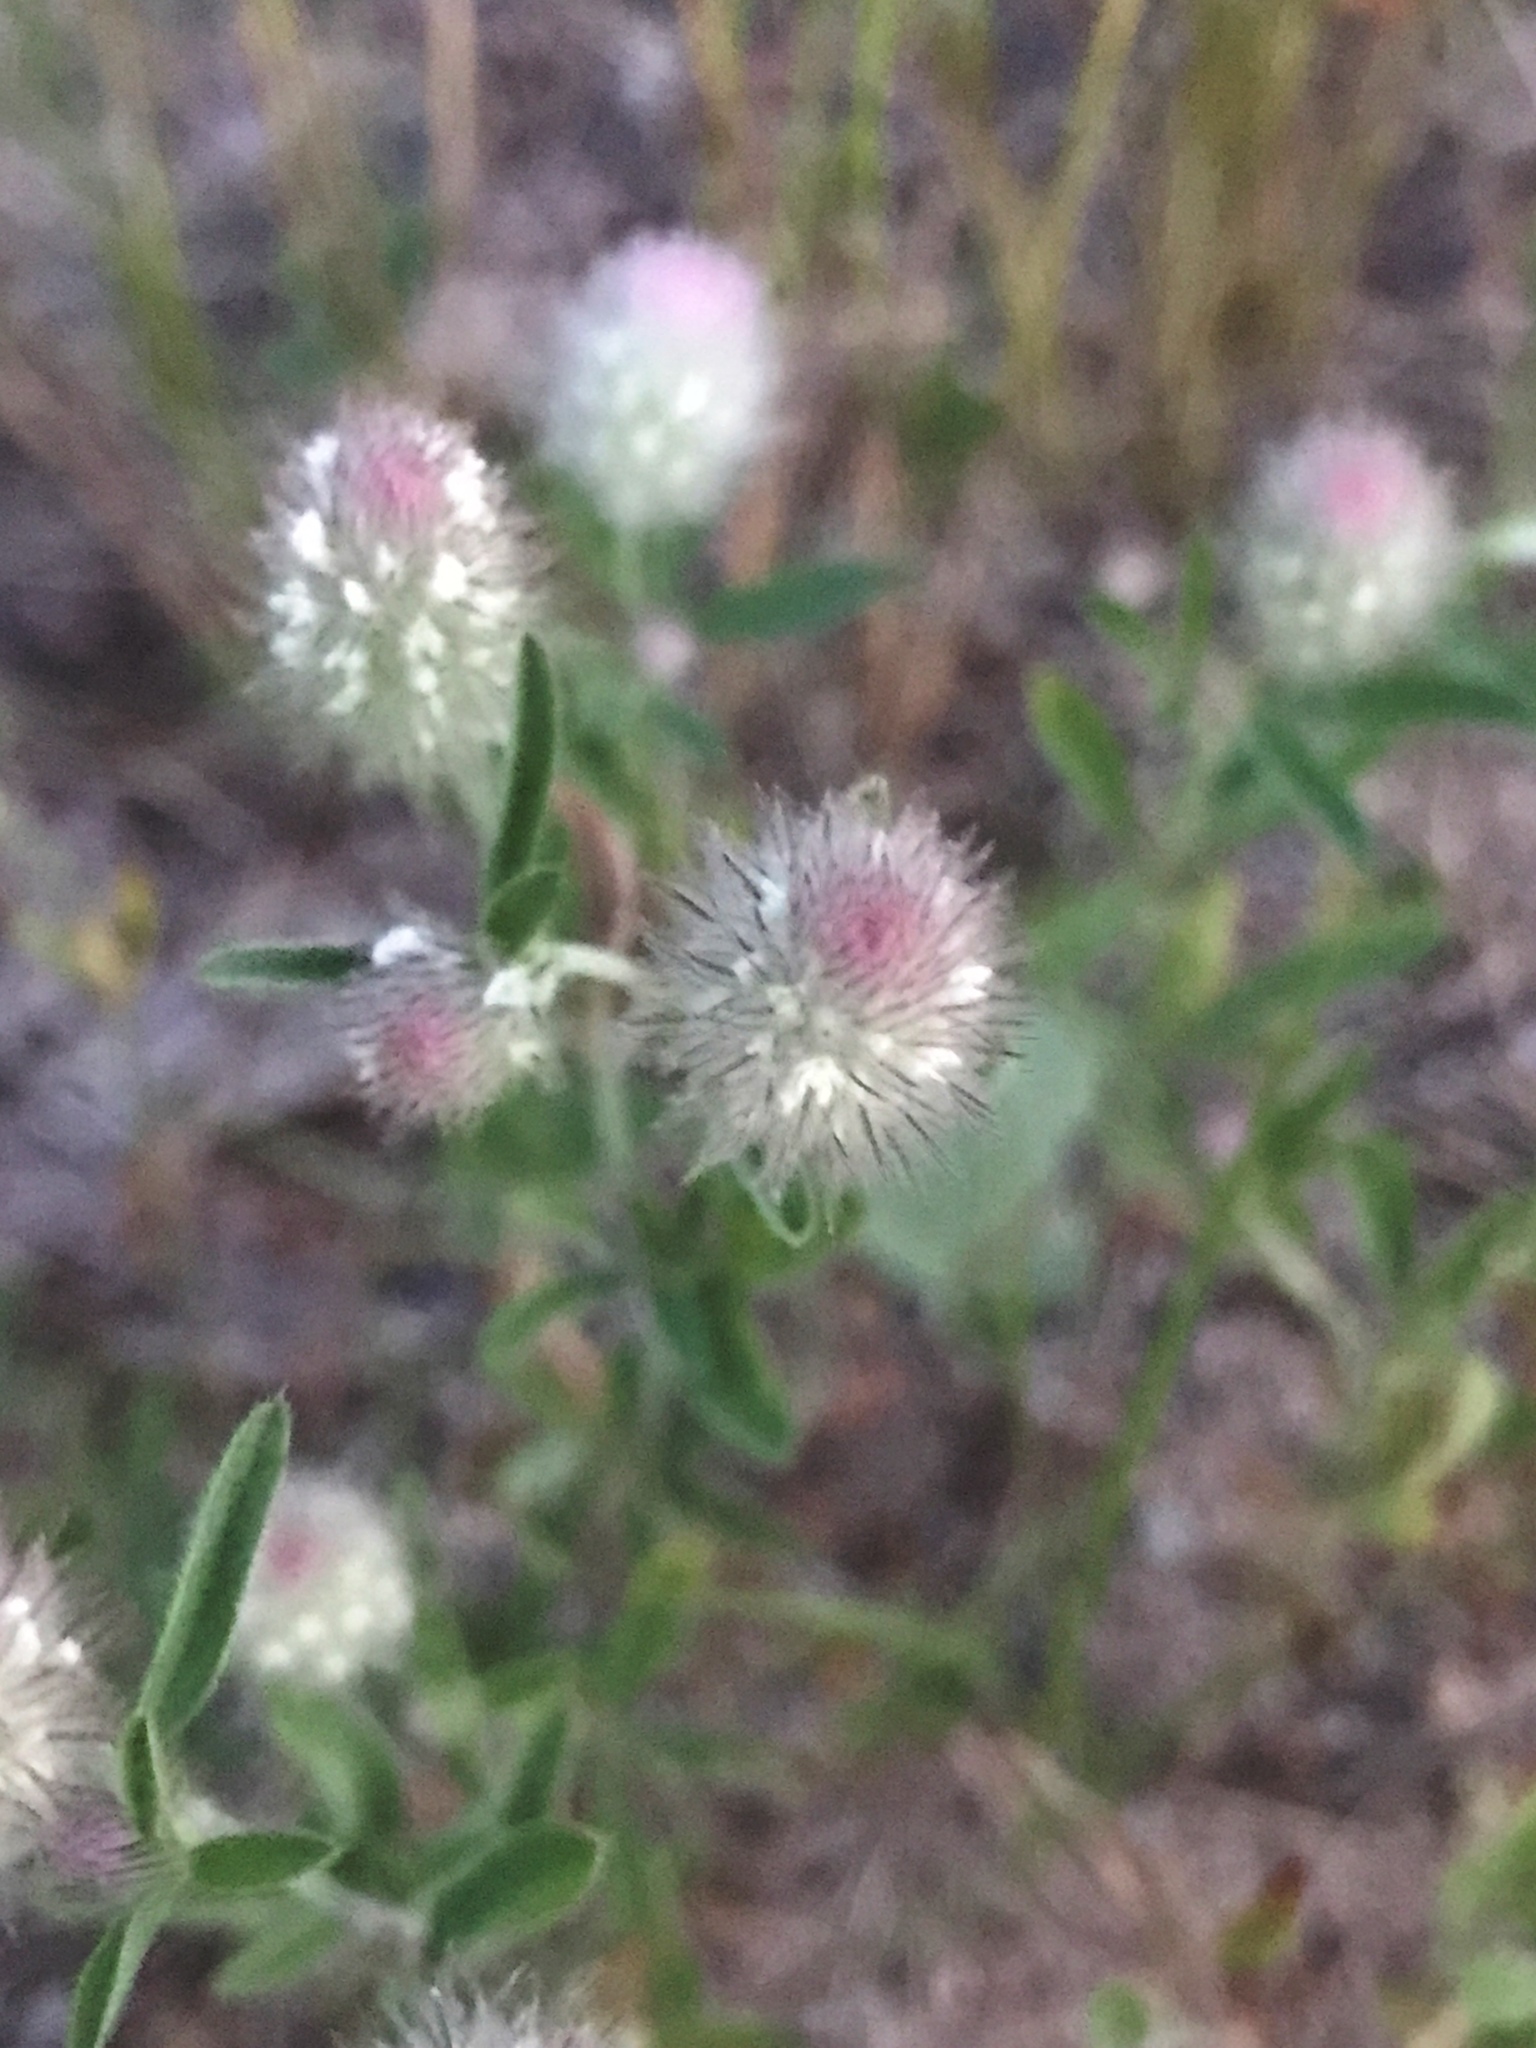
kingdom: Plantae
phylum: Tracheophyta
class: Magnoliopsida
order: Fabales
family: Fabaceae
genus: Trifolium
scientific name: Trifolium arvense
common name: Hare's-foot clover
